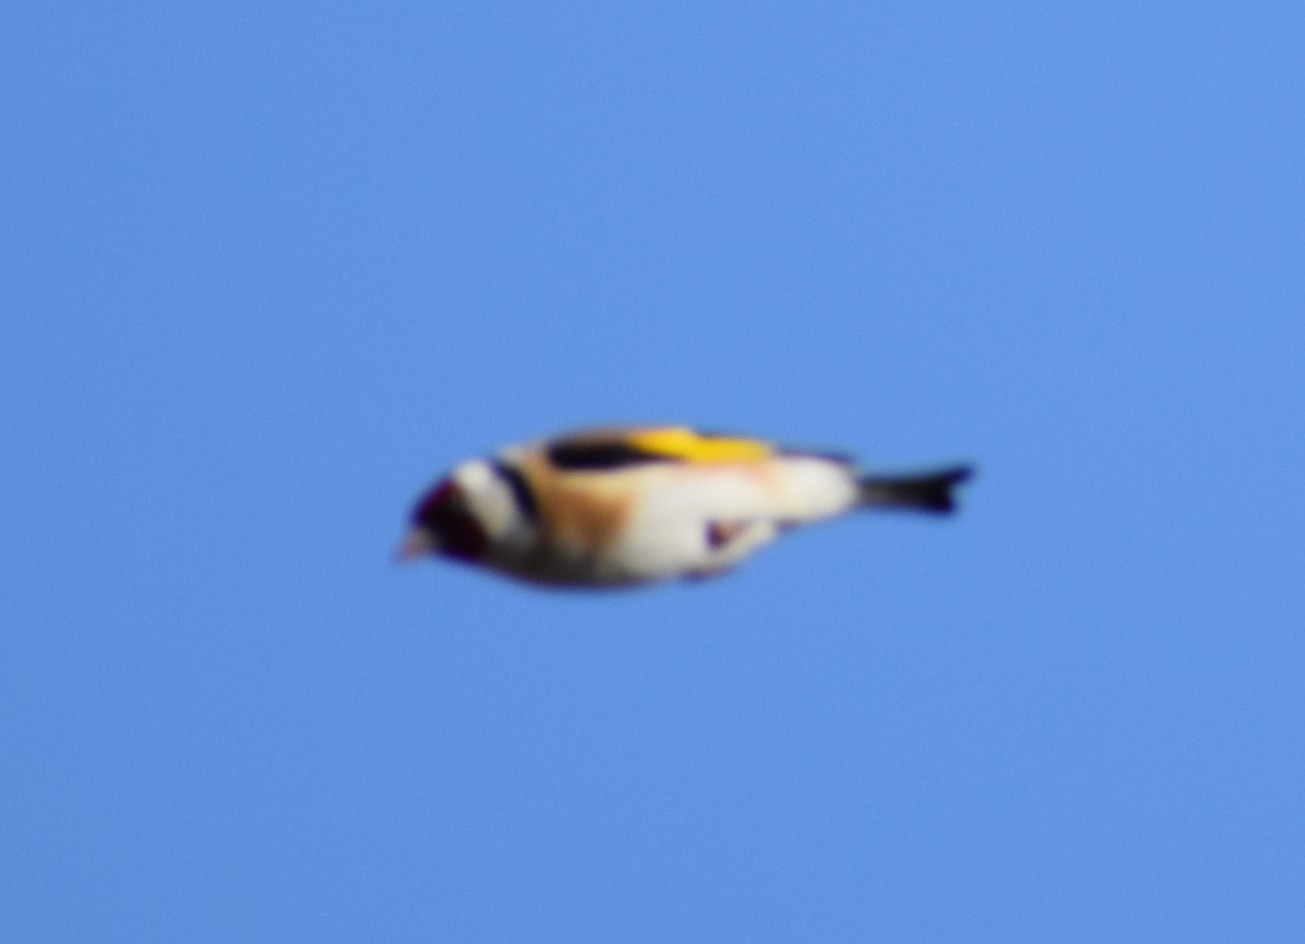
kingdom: Animalia
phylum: Chordata
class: Aves
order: Passeriformes
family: Fringillidae
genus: Carduelis
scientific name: Carduelis carduelis
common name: European goldfinch
